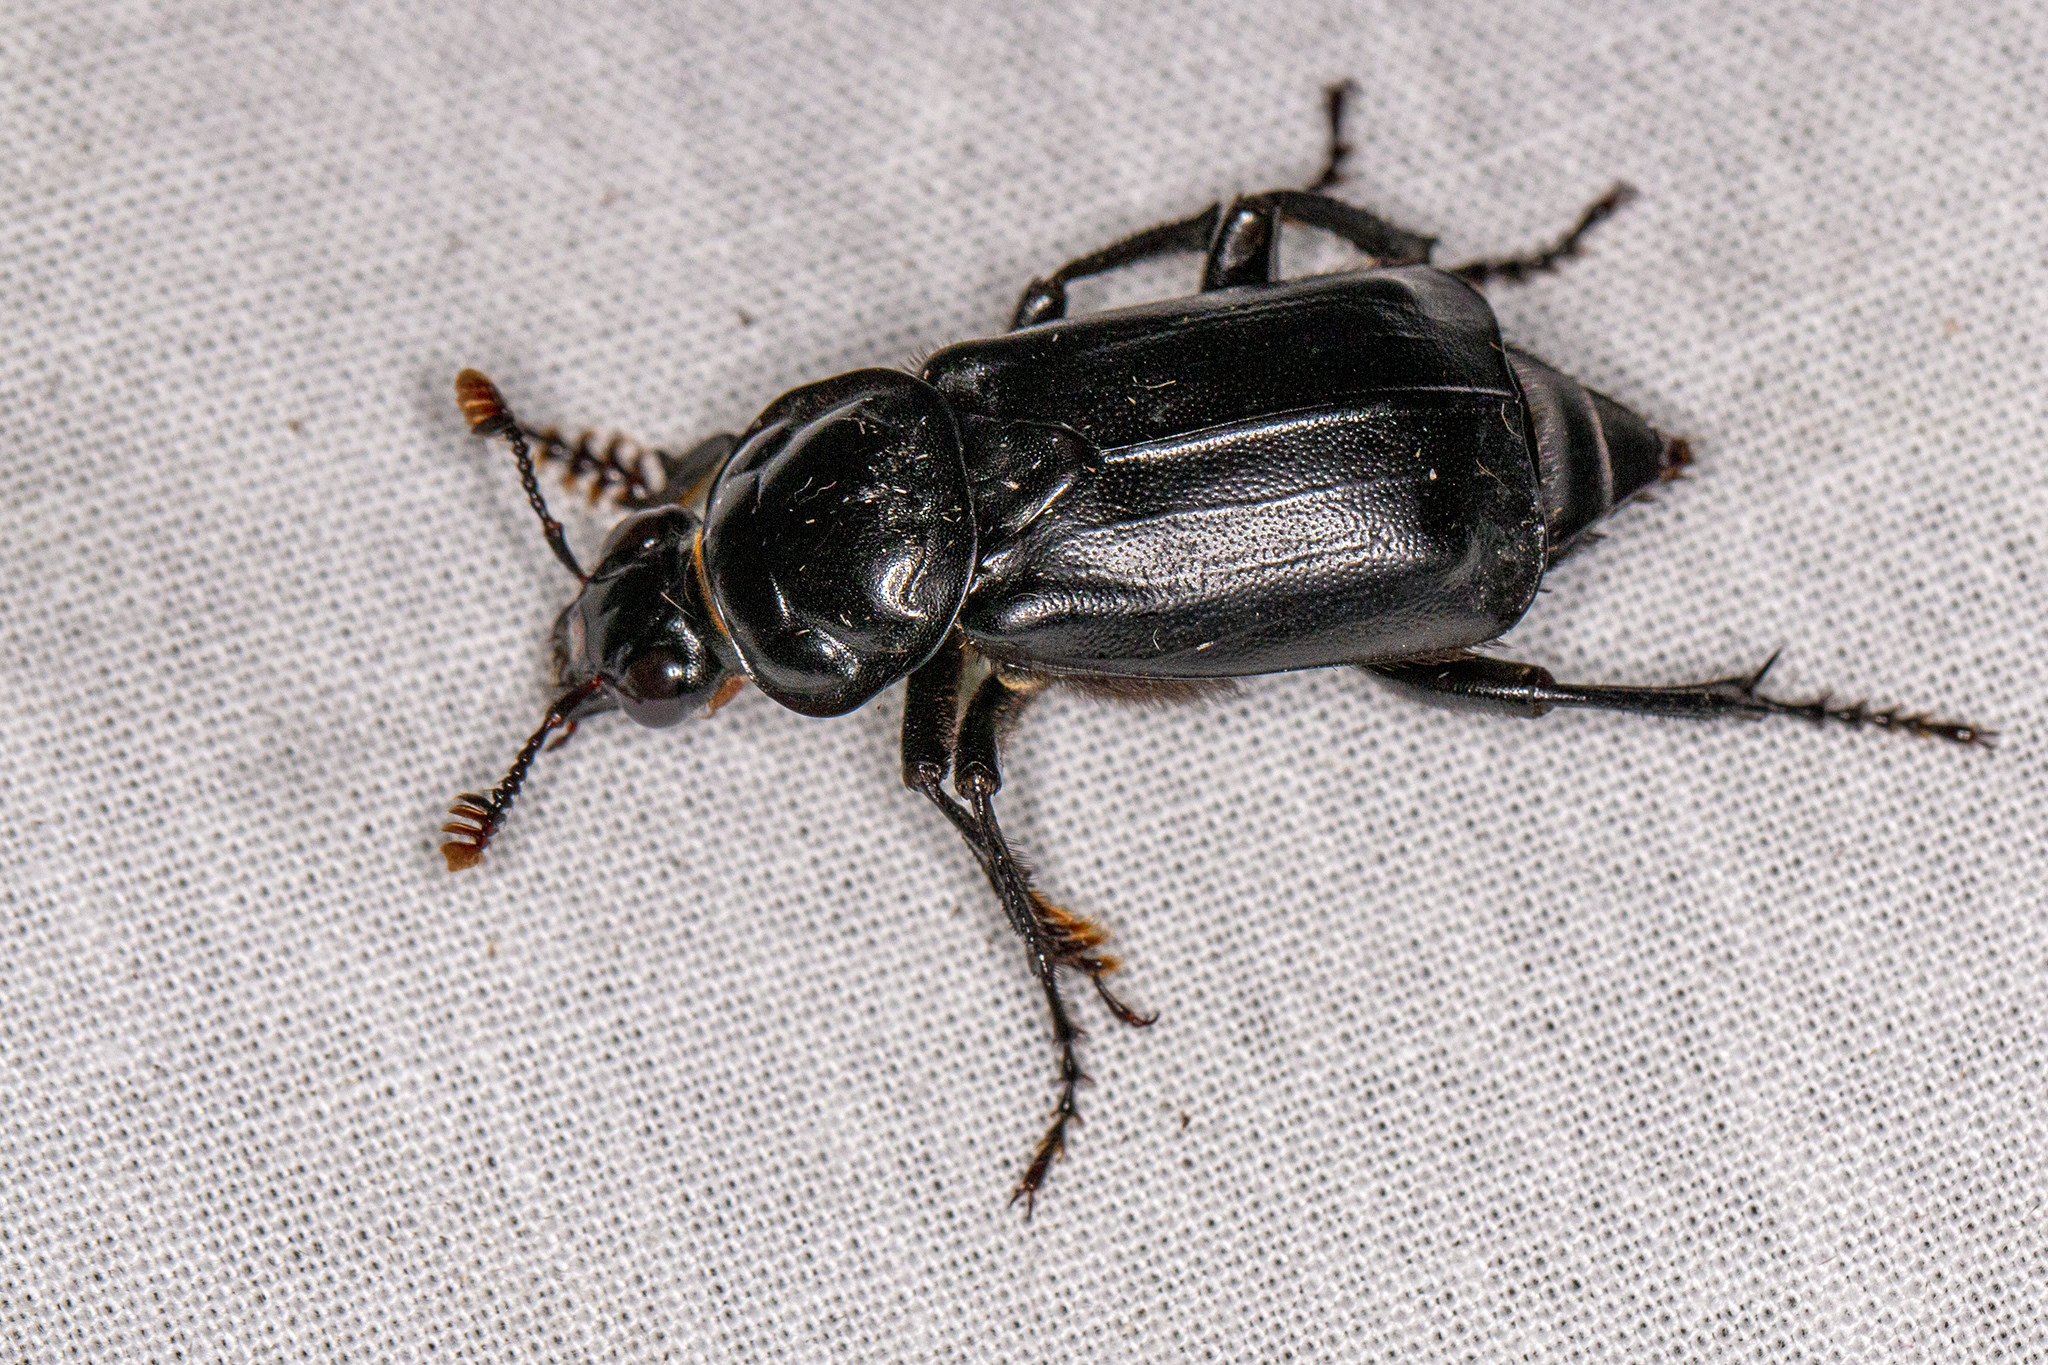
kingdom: Animalia
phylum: Arthropoda
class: Insecta
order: Coleoptera
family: Staphylinidae
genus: Nicrophorus
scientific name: Nicrophorus humator
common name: Black sexton beetle
